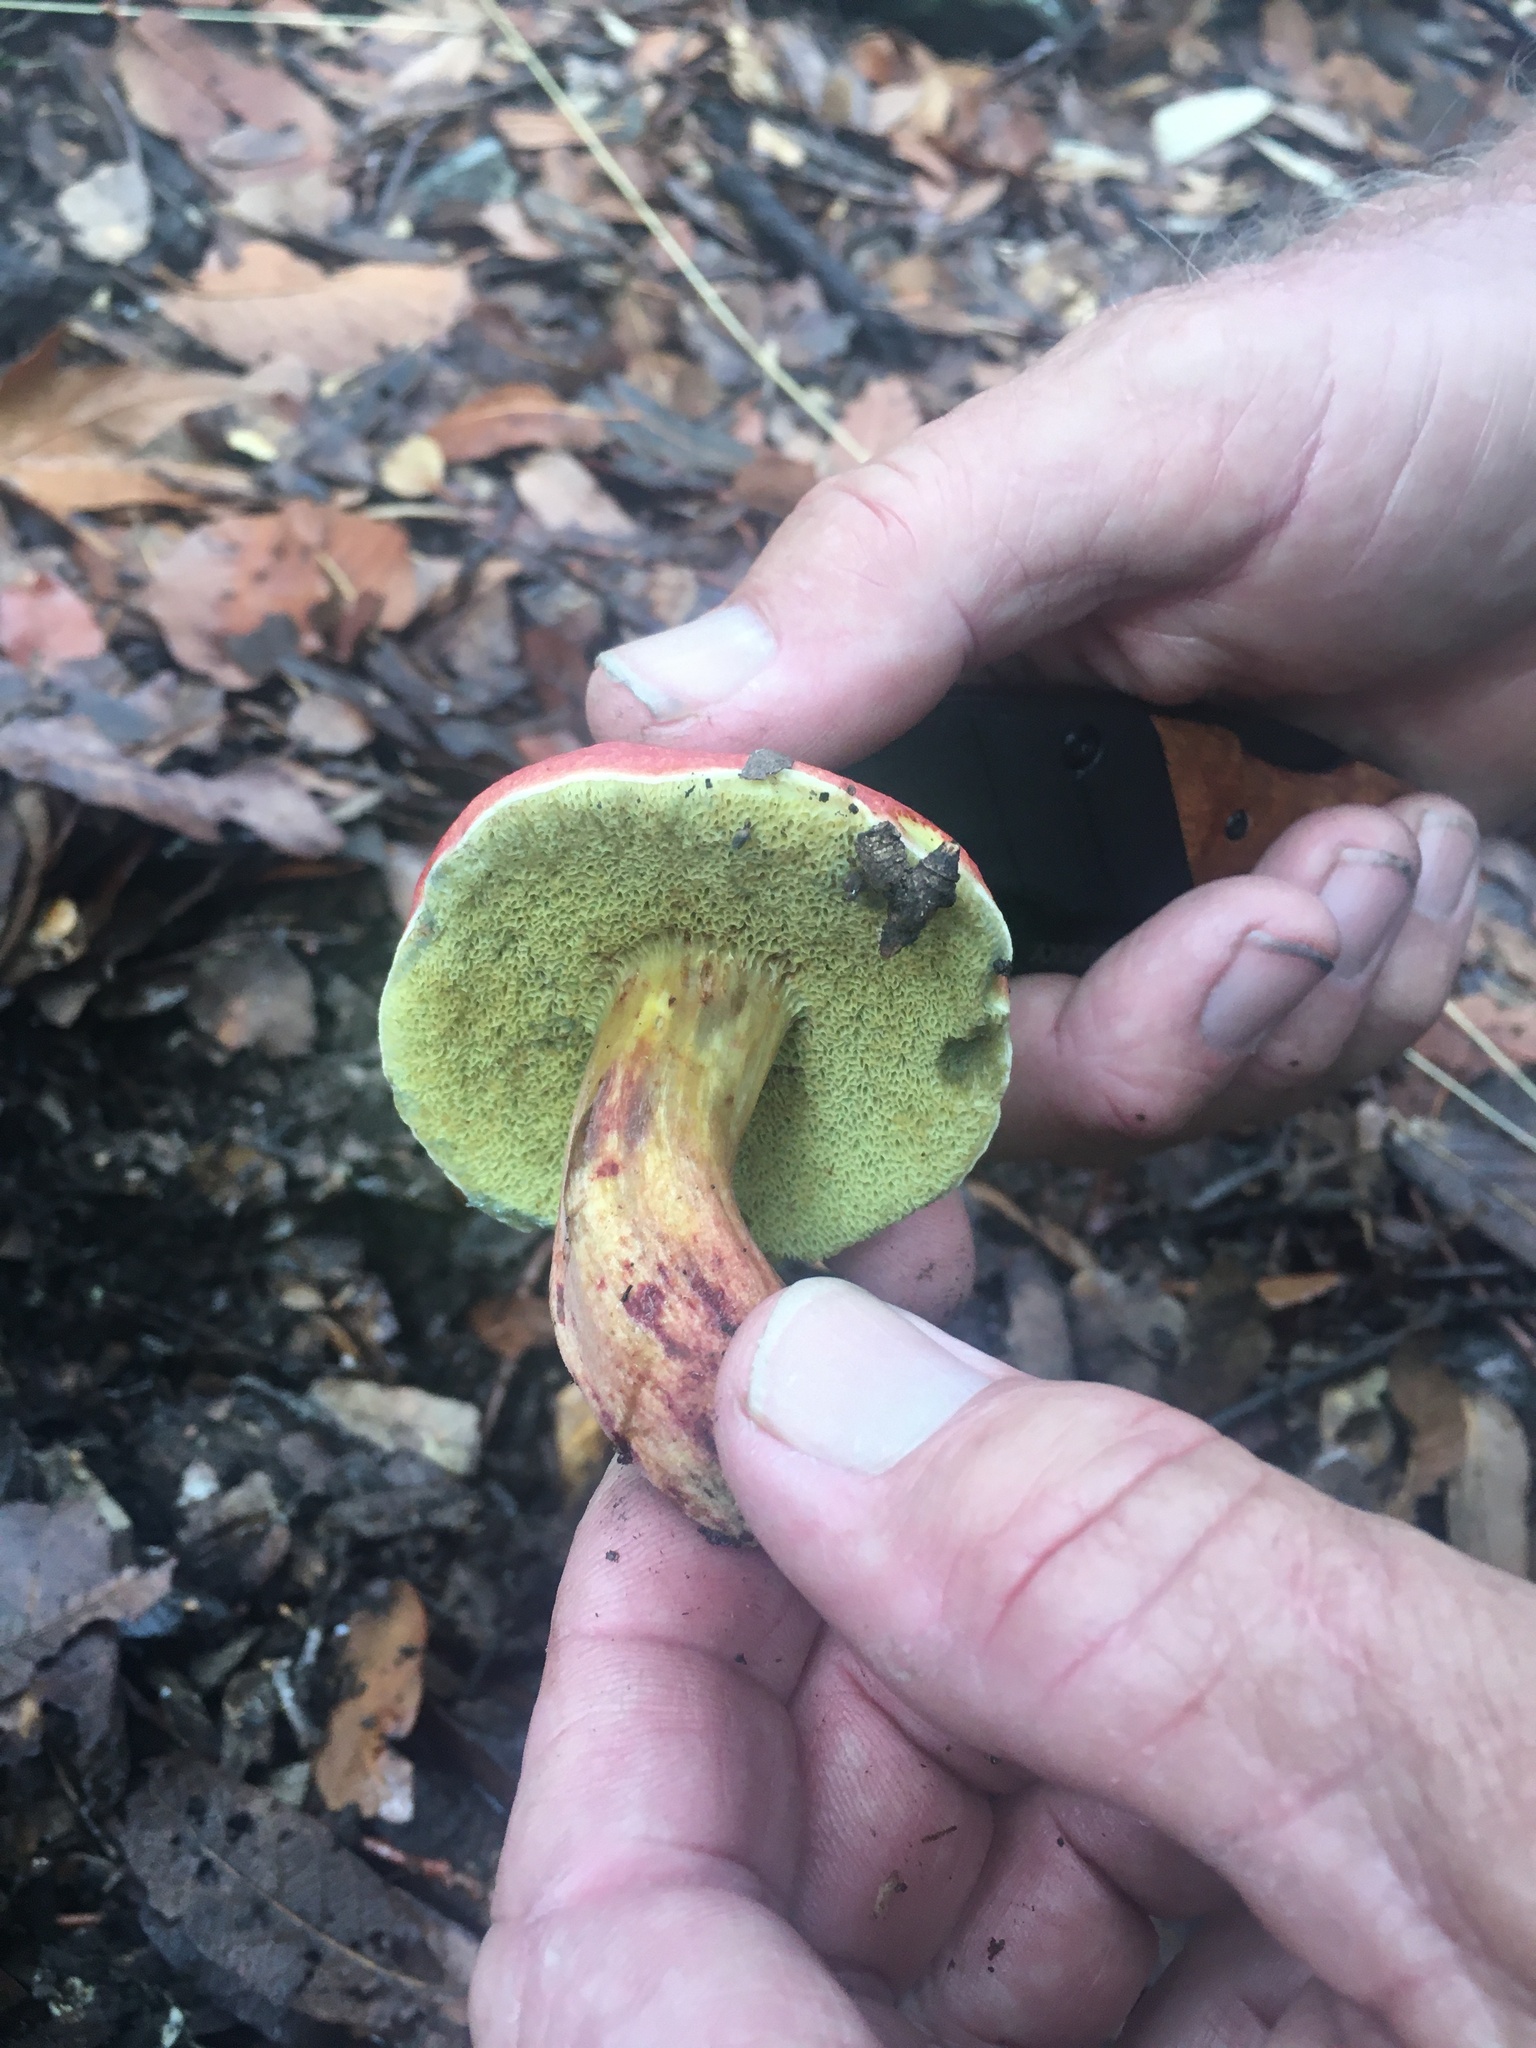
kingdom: Fungi
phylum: Basidiomycota
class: Agaricomycetes
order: Boletales
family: Boletaceae
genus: Hortiboletus
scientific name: Hortiboletus rubellus
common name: Ruby bolete
